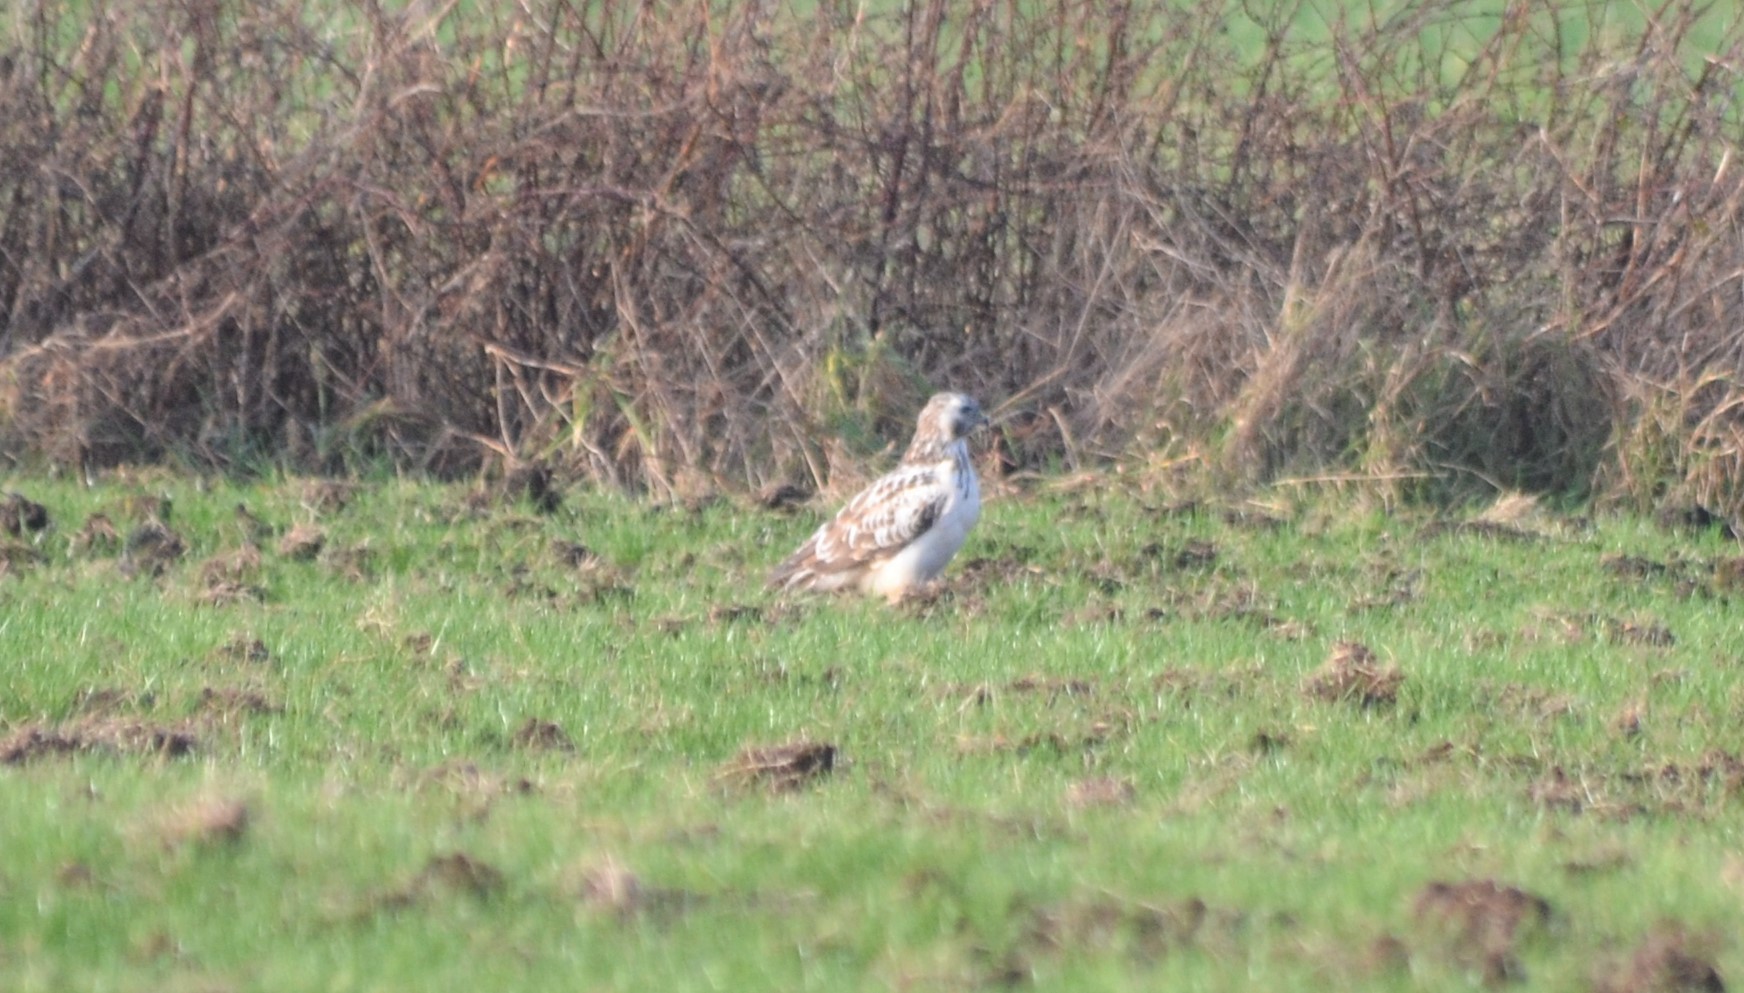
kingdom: Animalia
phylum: Chordata
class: Aves
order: Accipitriformes
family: Accipitridae
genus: Buteo
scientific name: Buteo buteo
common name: Common buzzard
